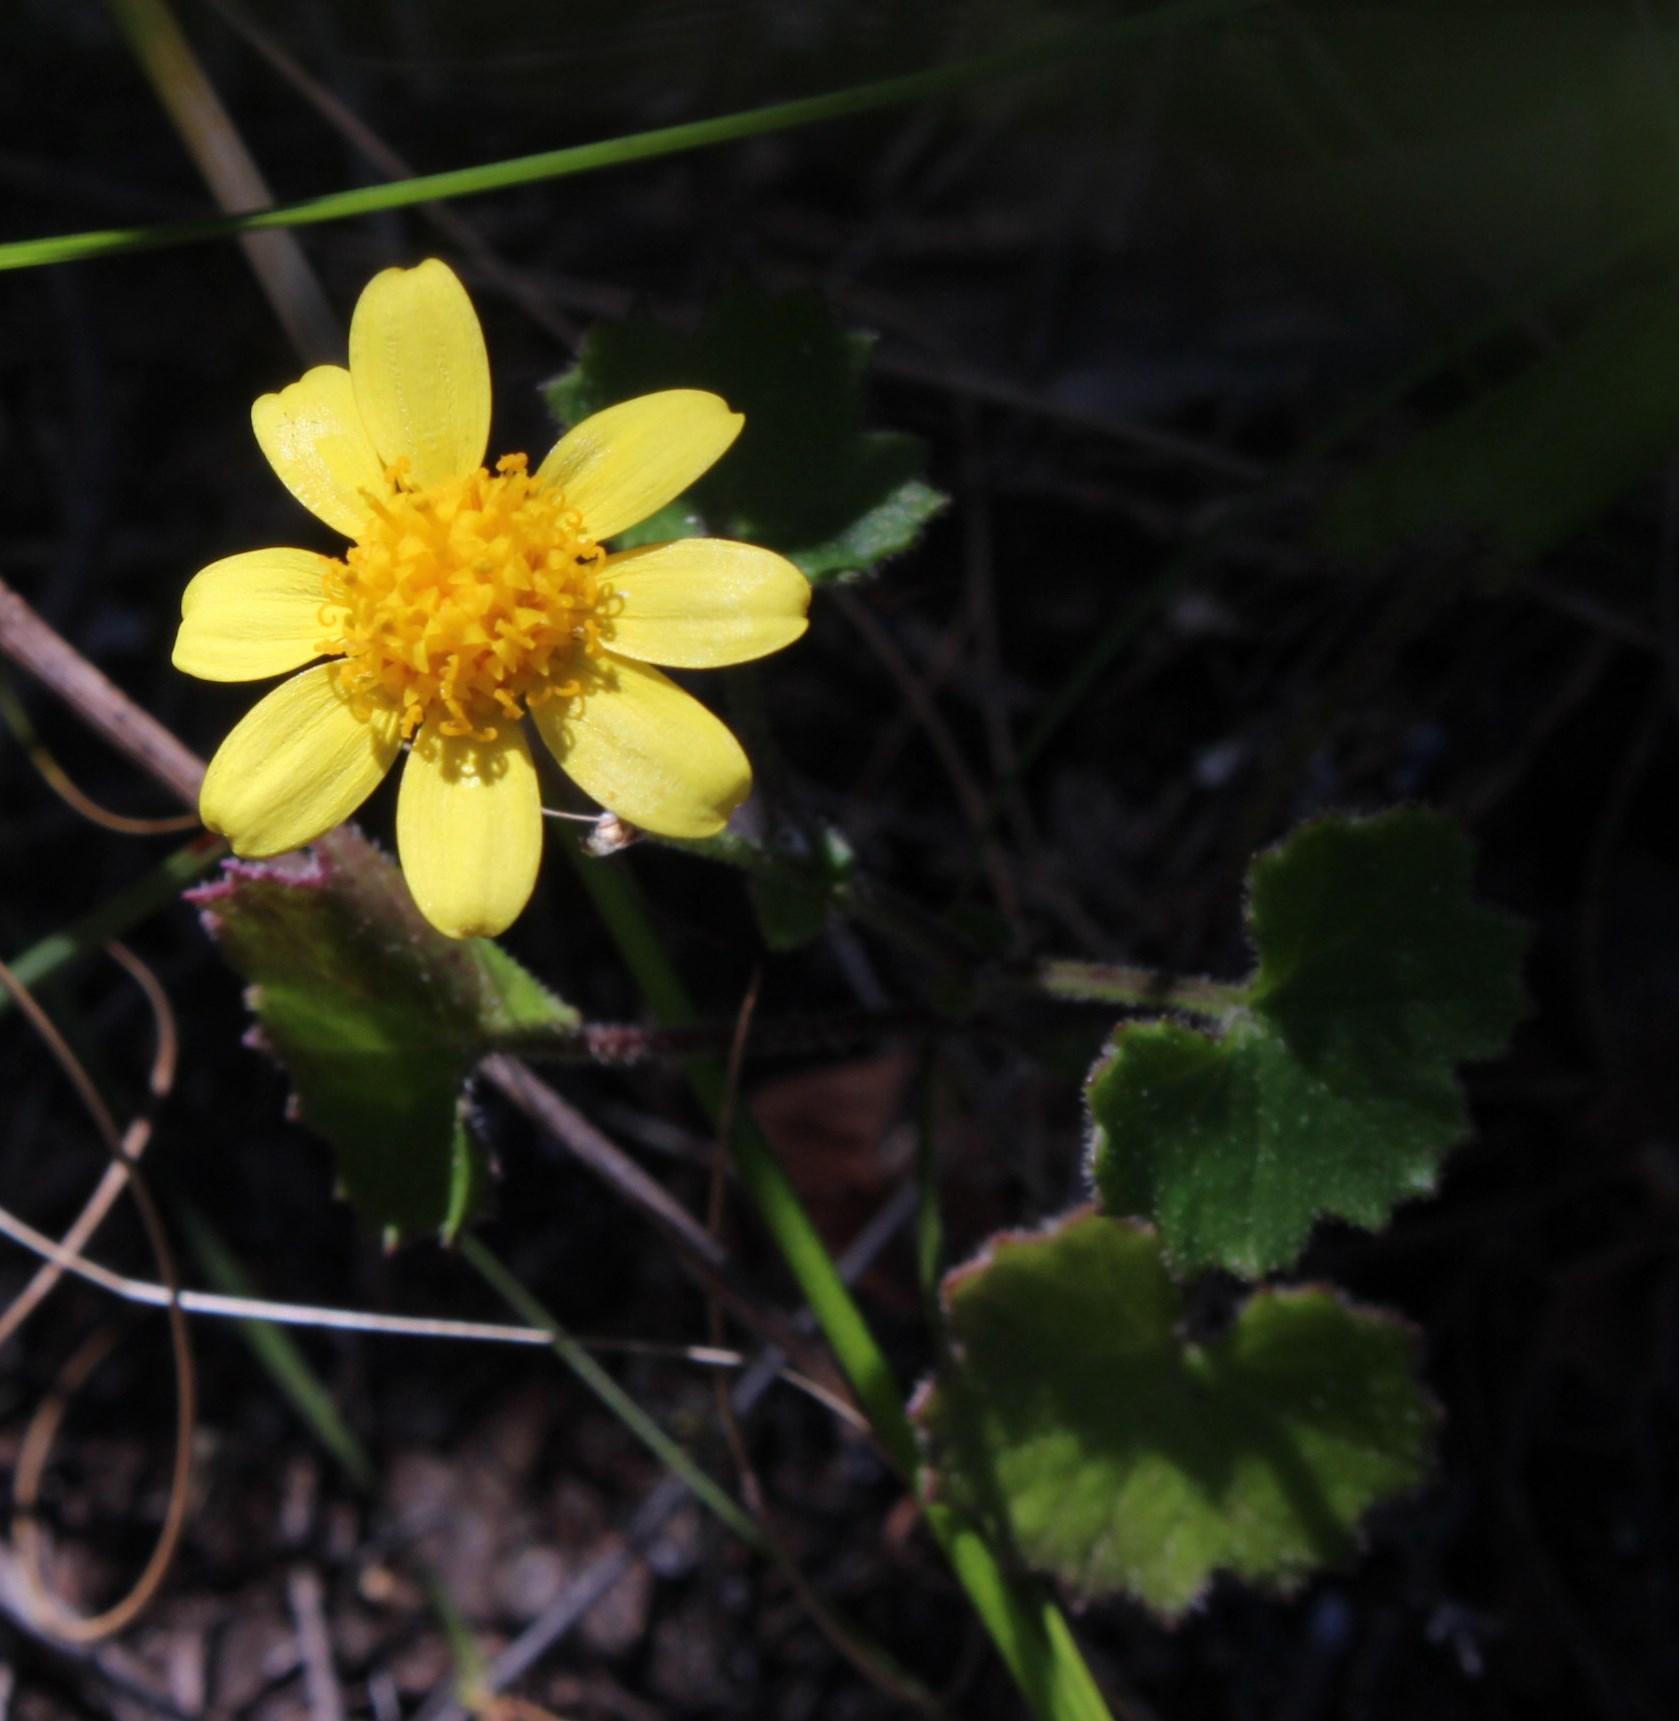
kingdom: Plantae
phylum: Tracheophyta
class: Magnoliopsida
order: Asterales
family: Asteraceae
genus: Cineraria
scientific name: Cineraria geifolia
